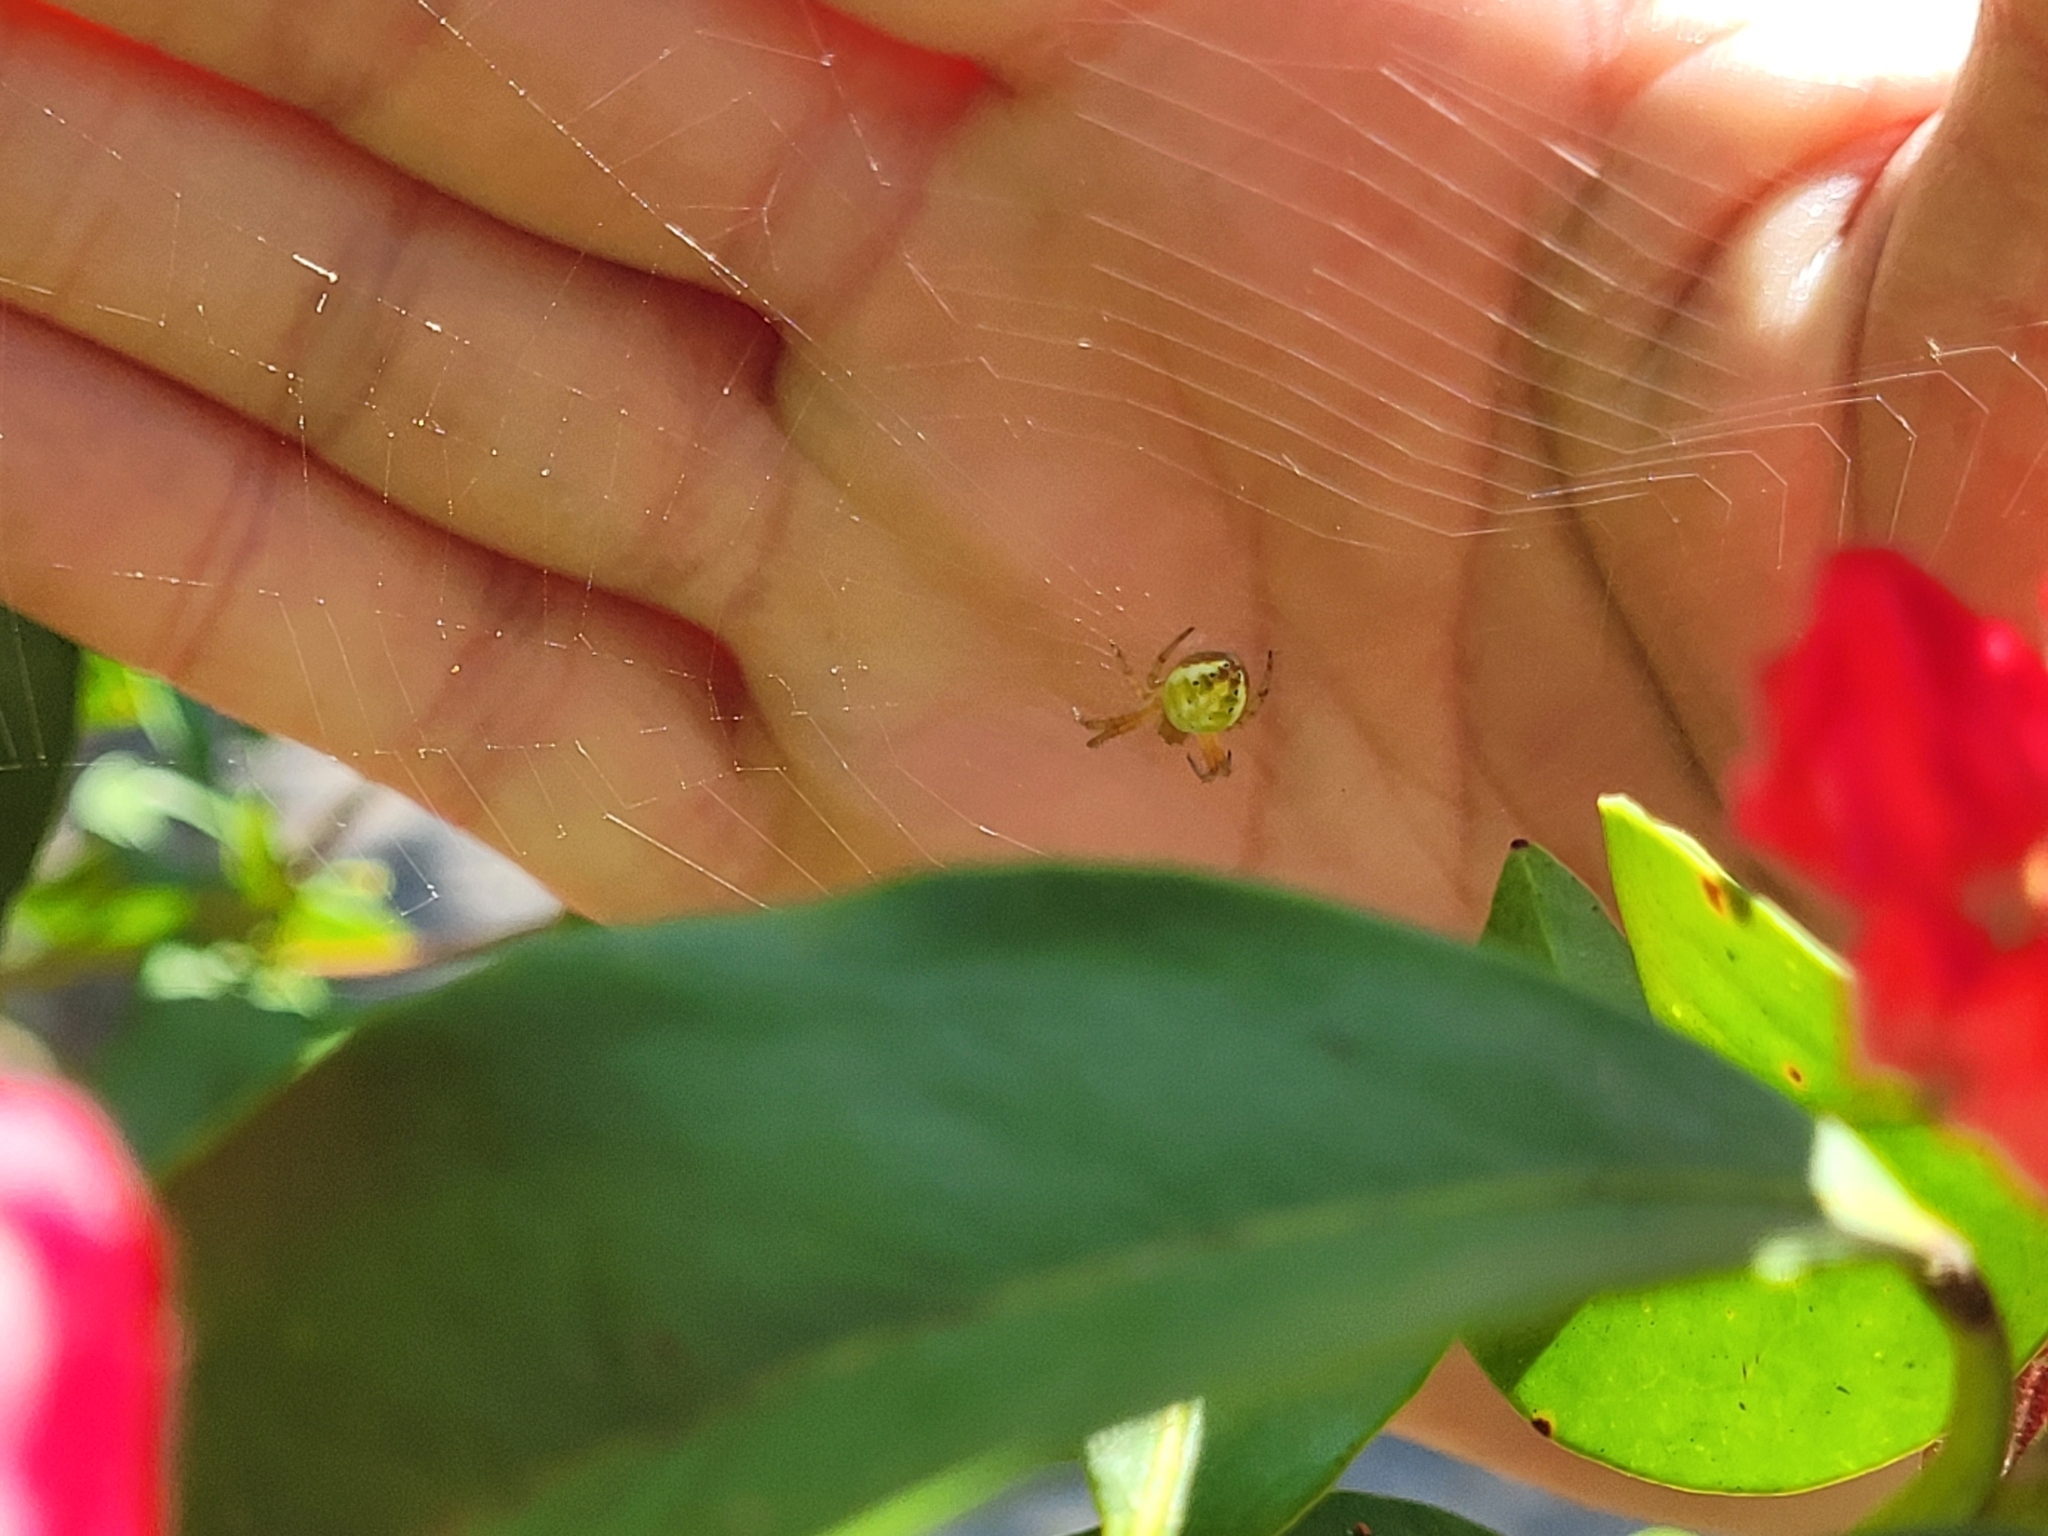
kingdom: Animalia
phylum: Arthropoda
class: Arachnida
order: Araneae
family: Araneidae
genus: Araniella
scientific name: Araniella displicata
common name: Sixspotted orb weaver
